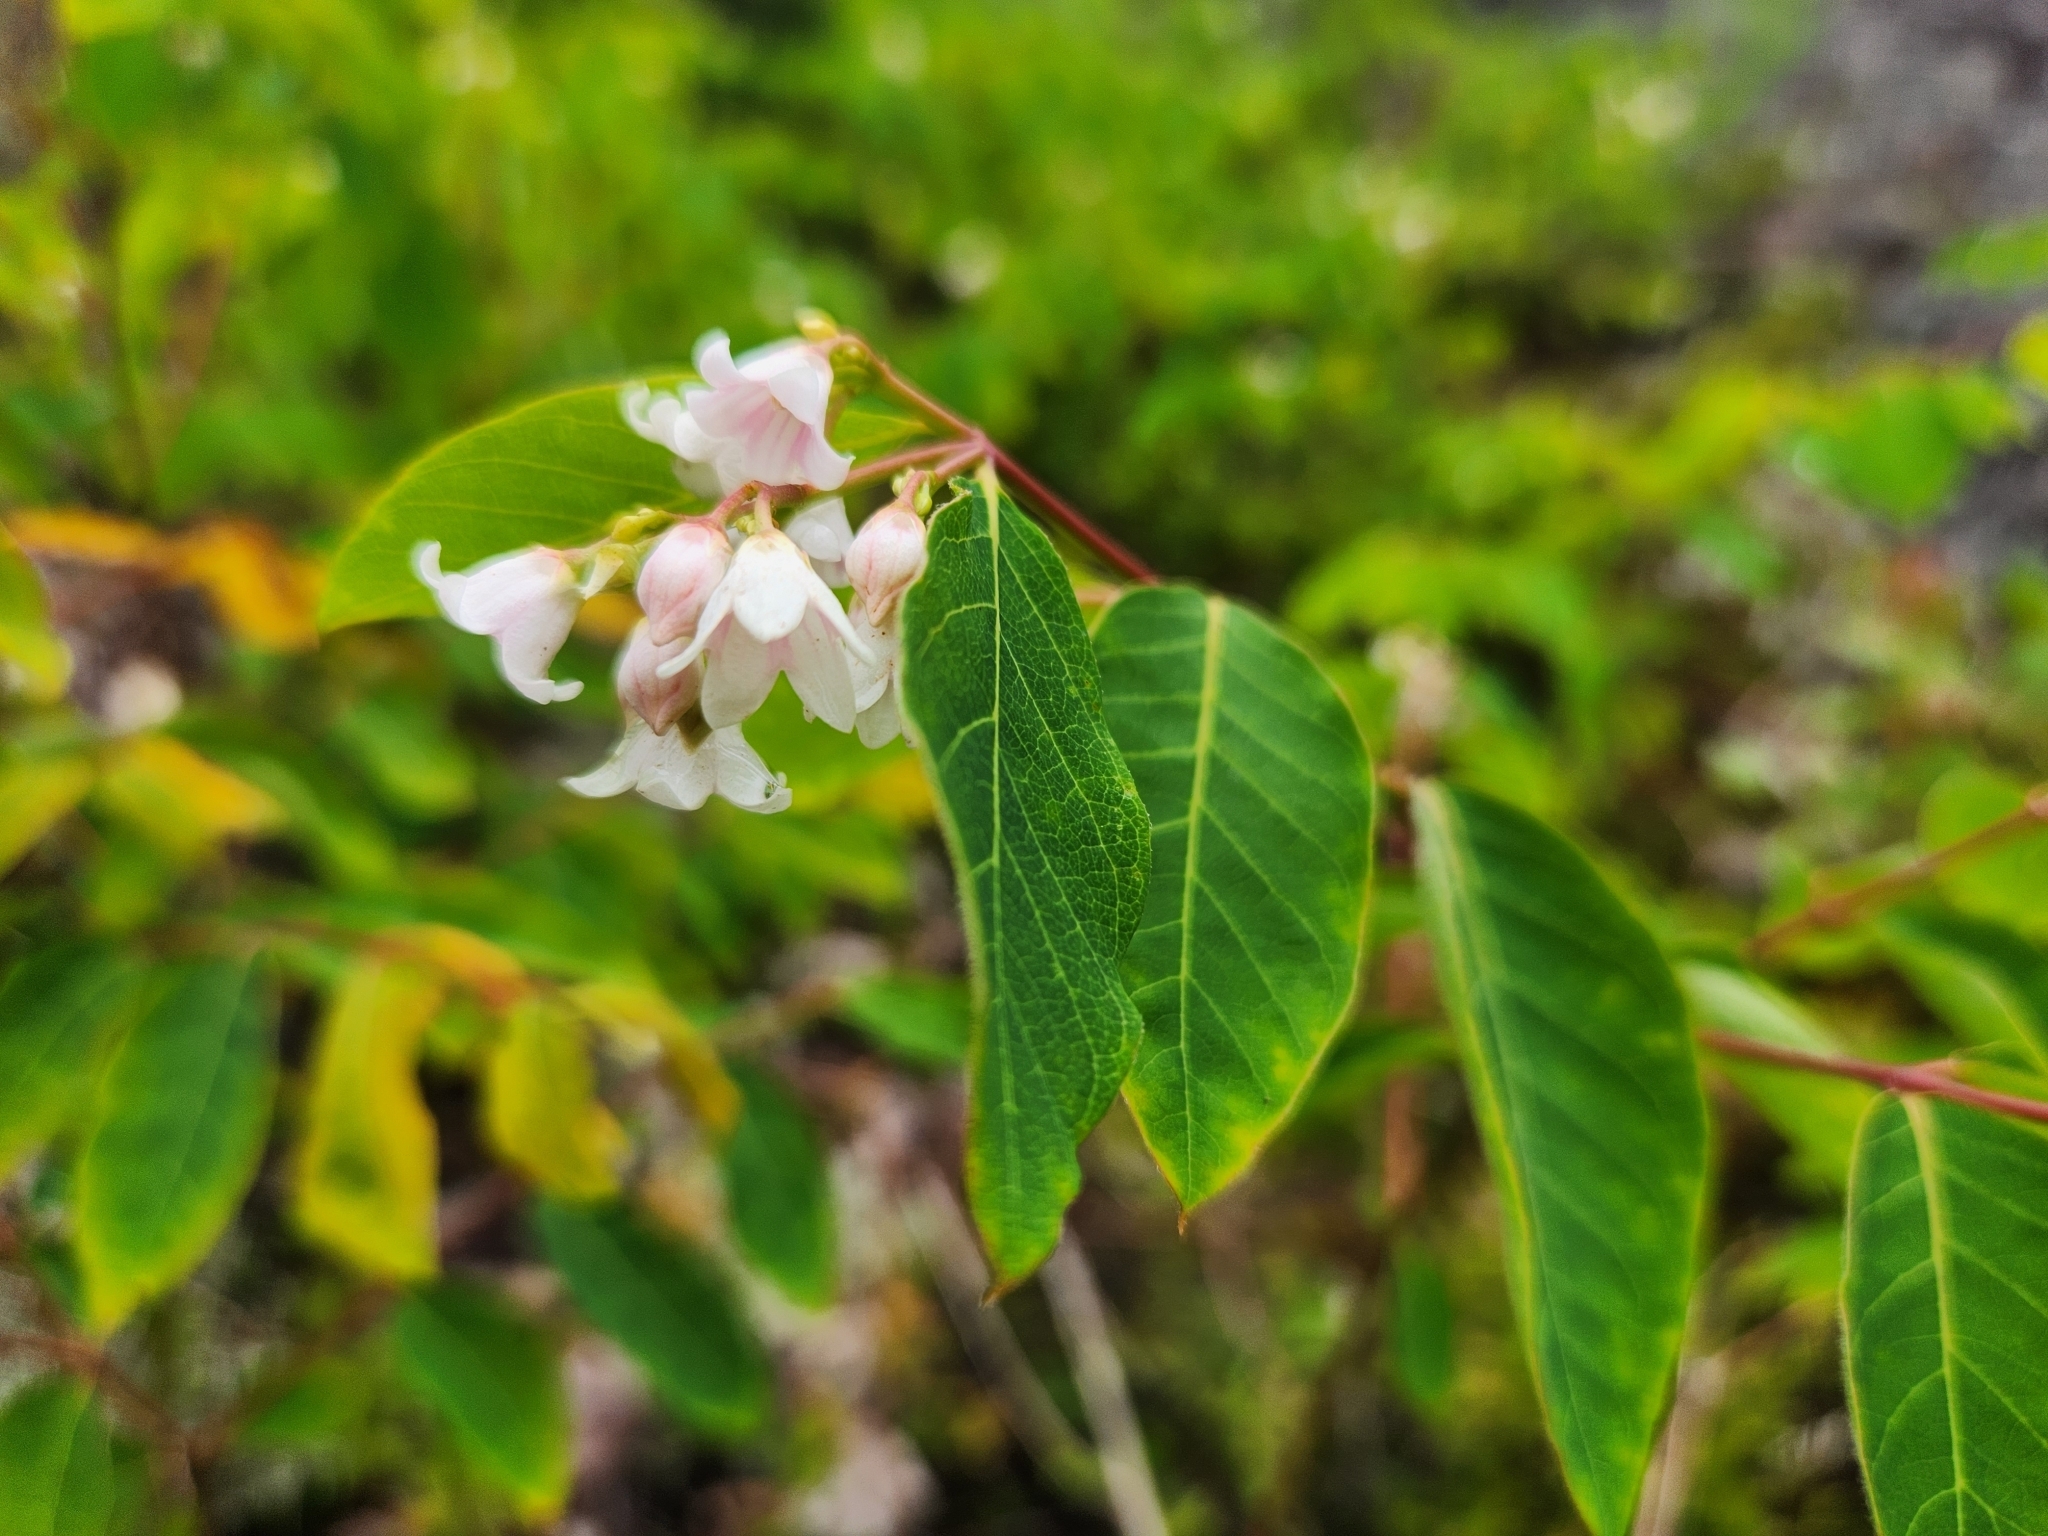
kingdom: Plantae
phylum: Tracheophyta
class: Magnoliopsida
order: Gentianales
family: Apocynaceae
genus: Apocynum
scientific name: Apocynum androsaemifolium
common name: Spreading dogbane
